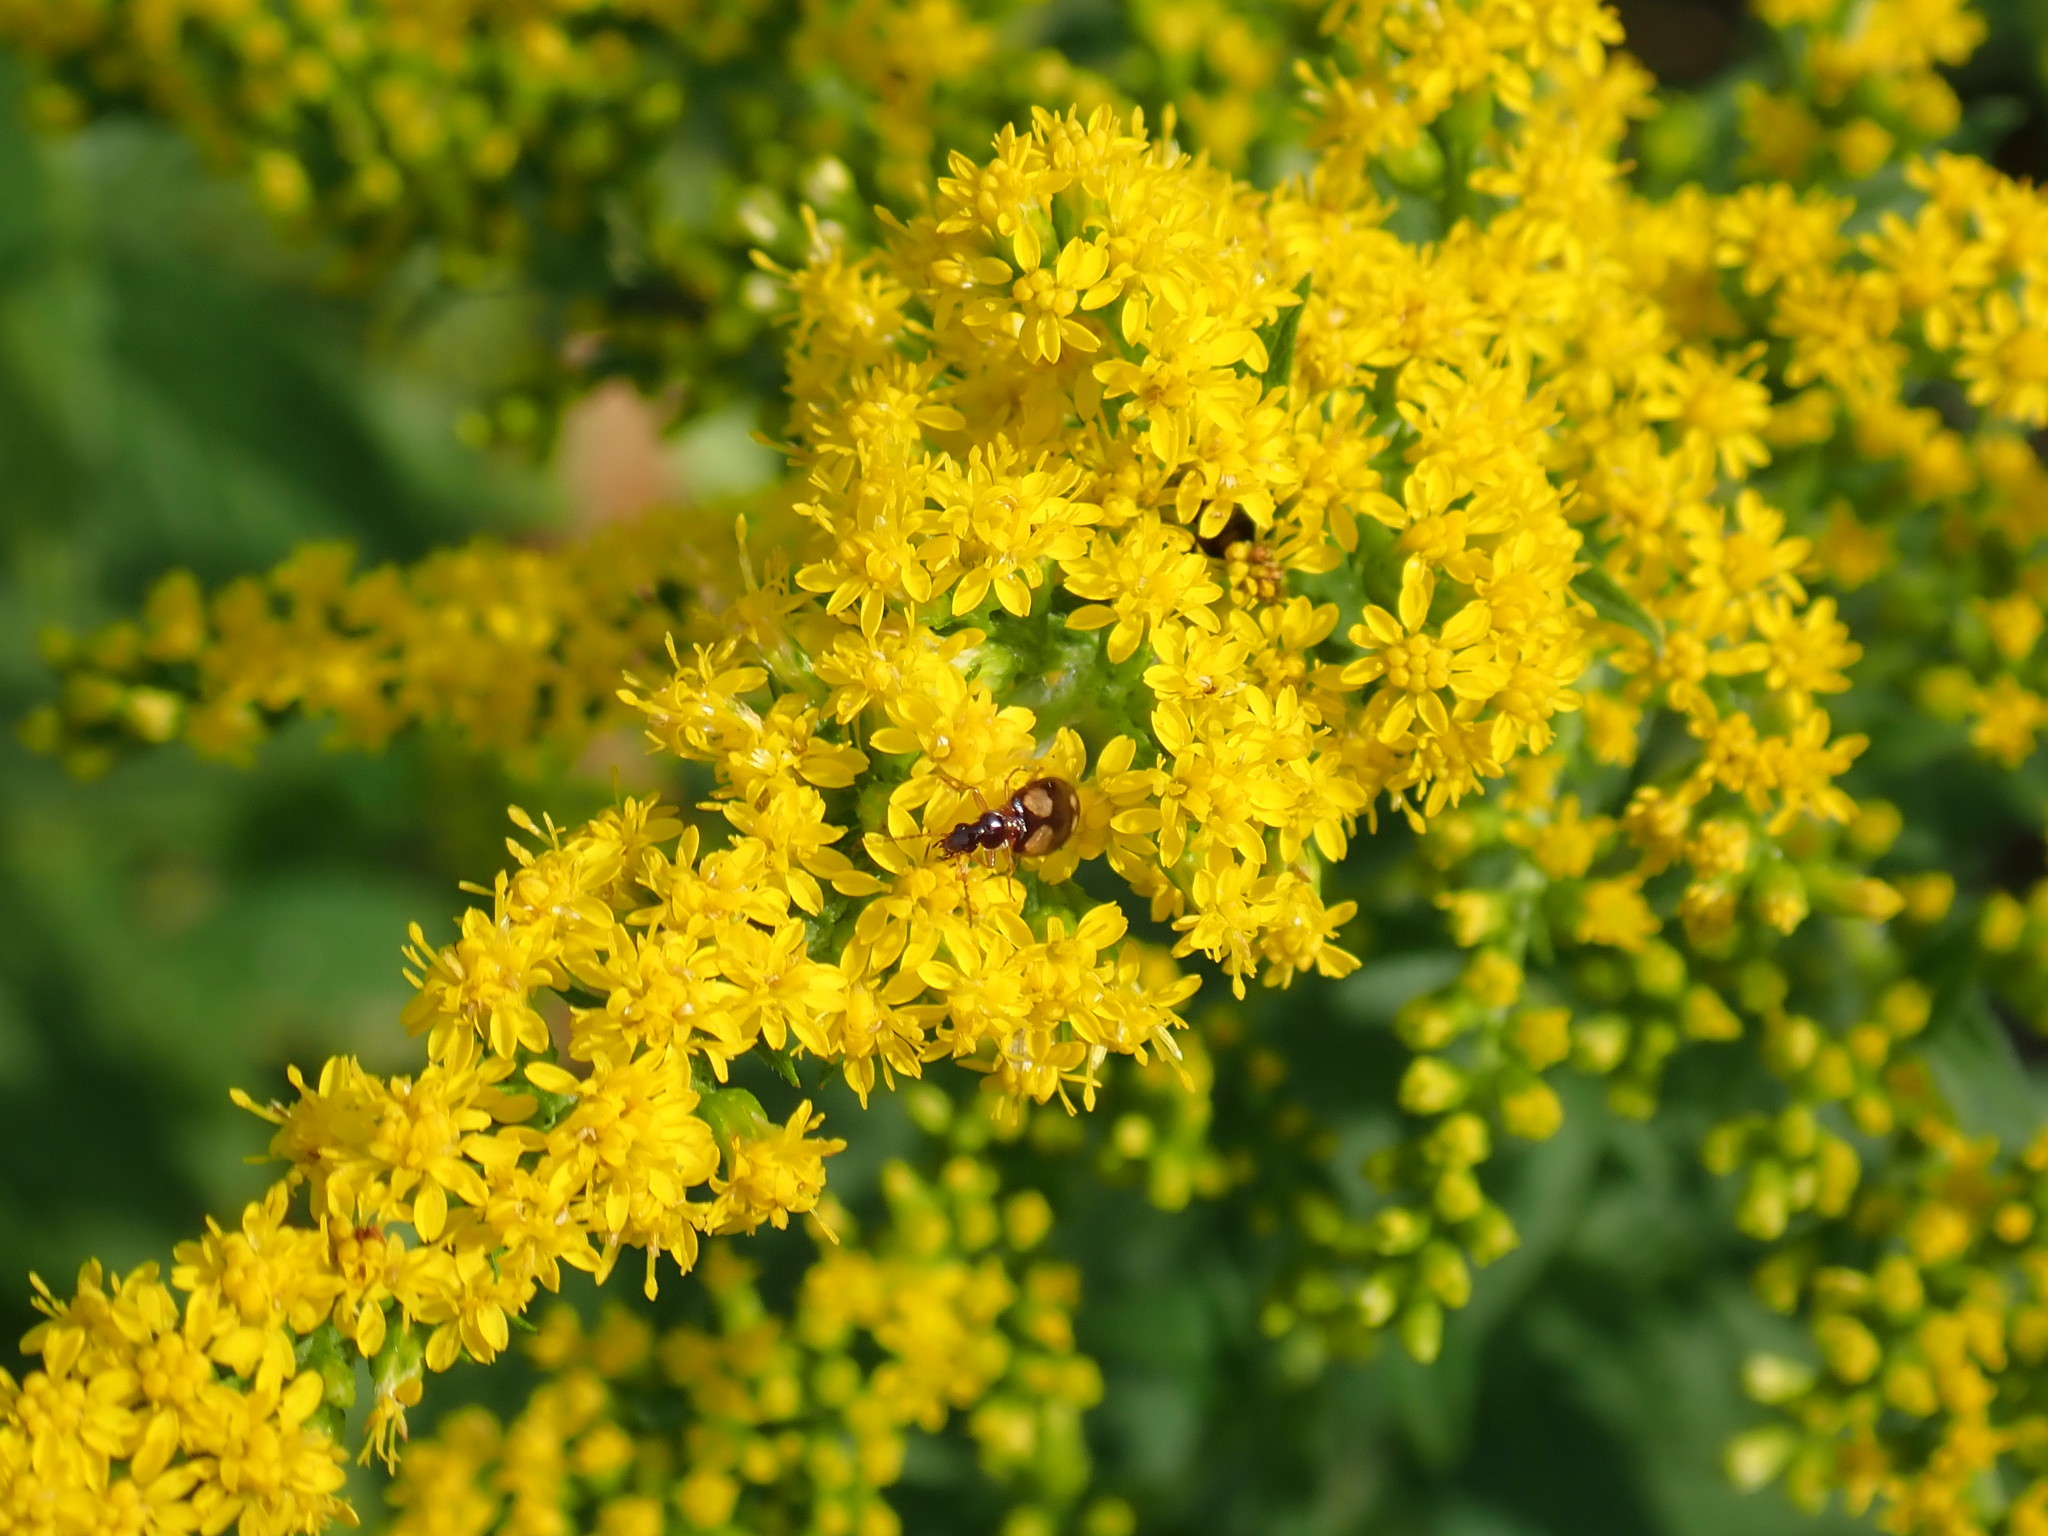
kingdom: Animalia
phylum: Arthropoda
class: Insecta
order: Coleoptera
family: Carabidae
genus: Lebia
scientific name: Lebia ornata
